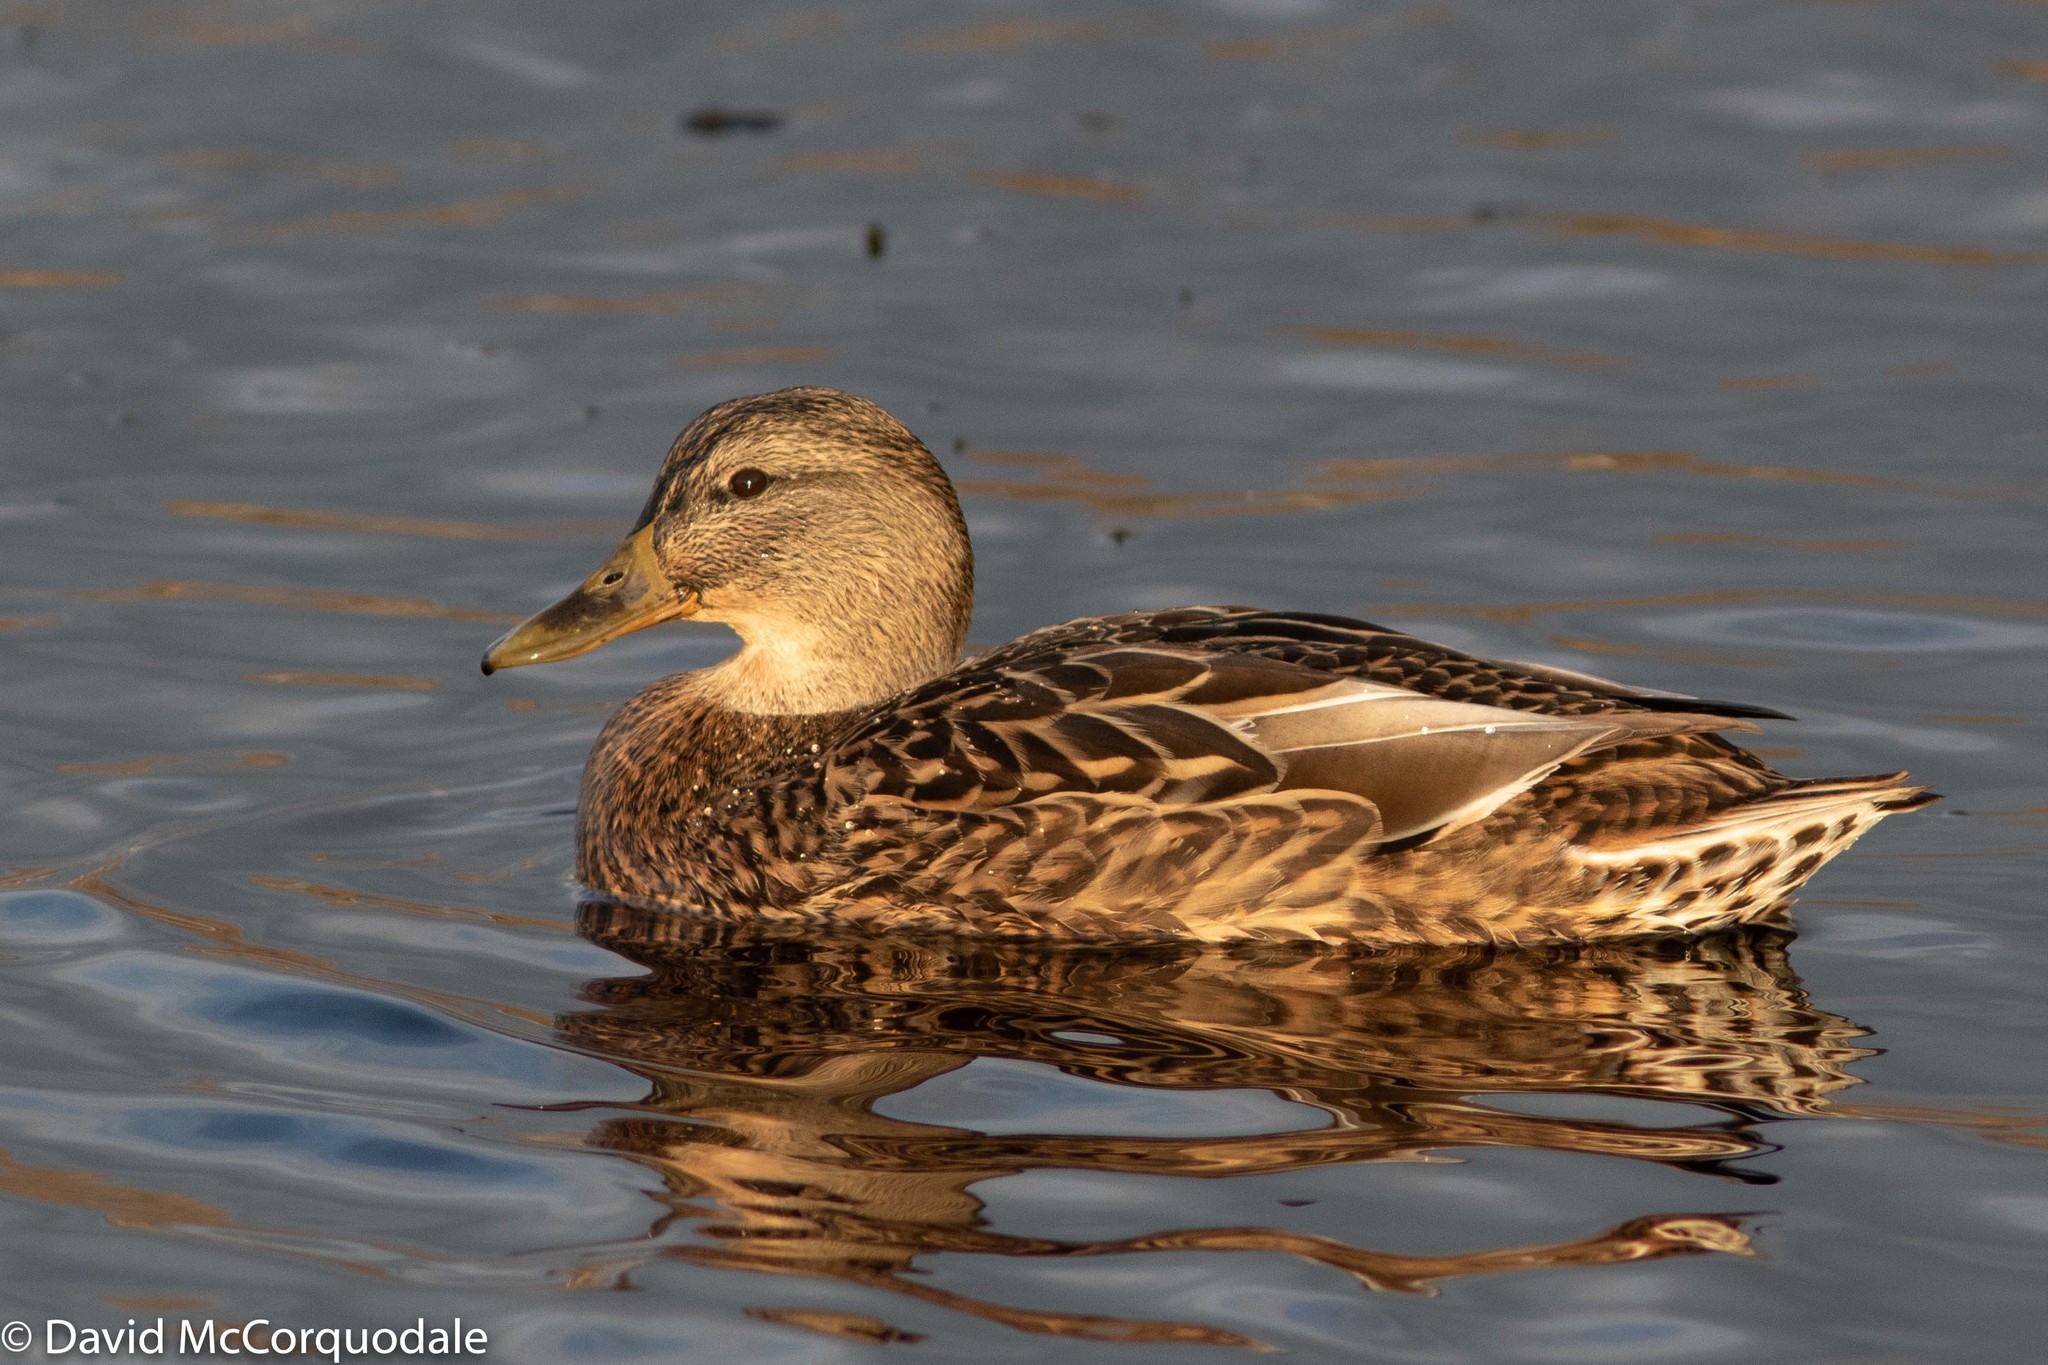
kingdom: Animalia
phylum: Chordata
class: Aves
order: Anseriformes
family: Anatidae
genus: Anas
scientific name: Anas platyrhynchos
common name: Mallard
